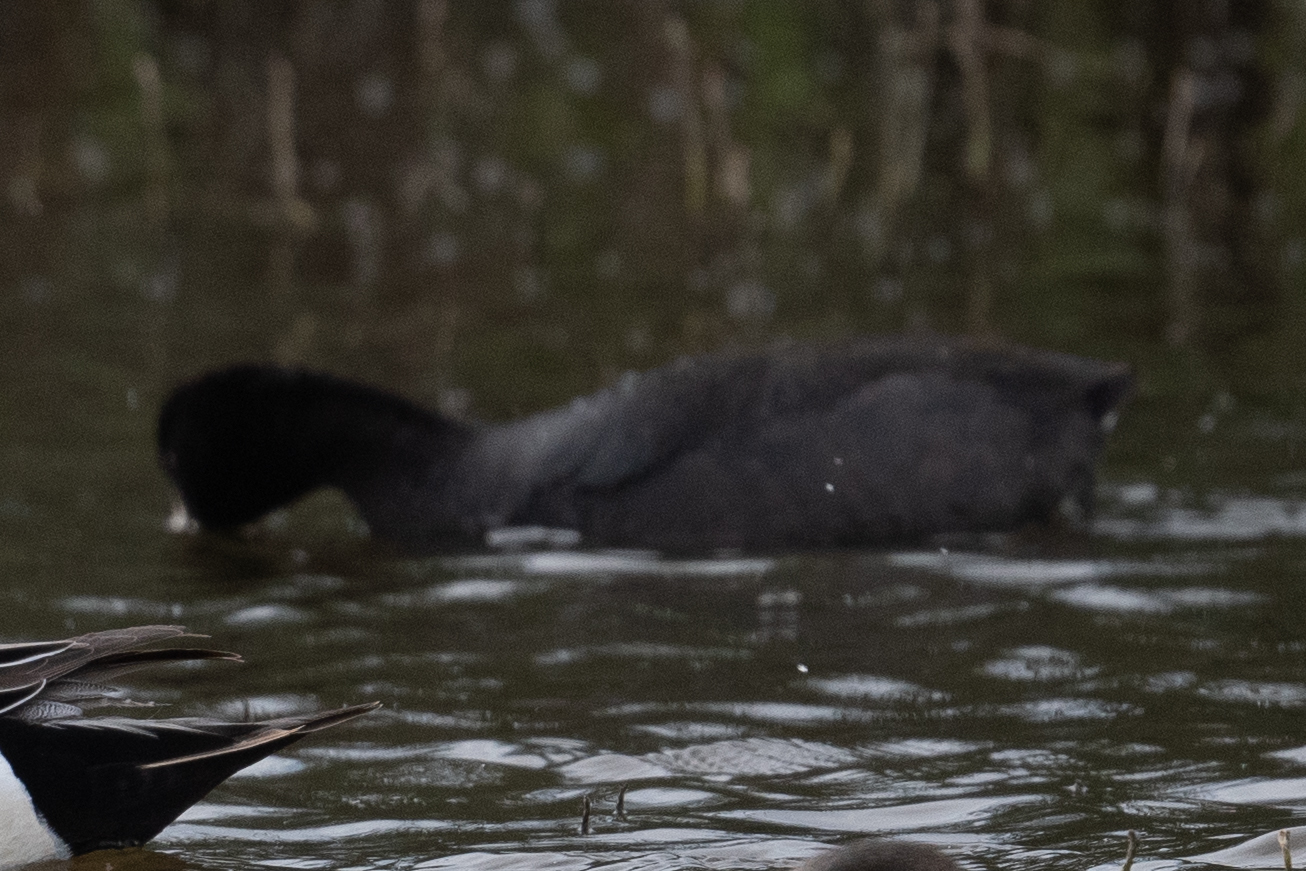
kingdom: Animalia
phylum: Chordata
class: Aves
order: Gruiformes
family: Rallidae
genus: Fulica
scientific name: Fulica americana
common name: American coot
